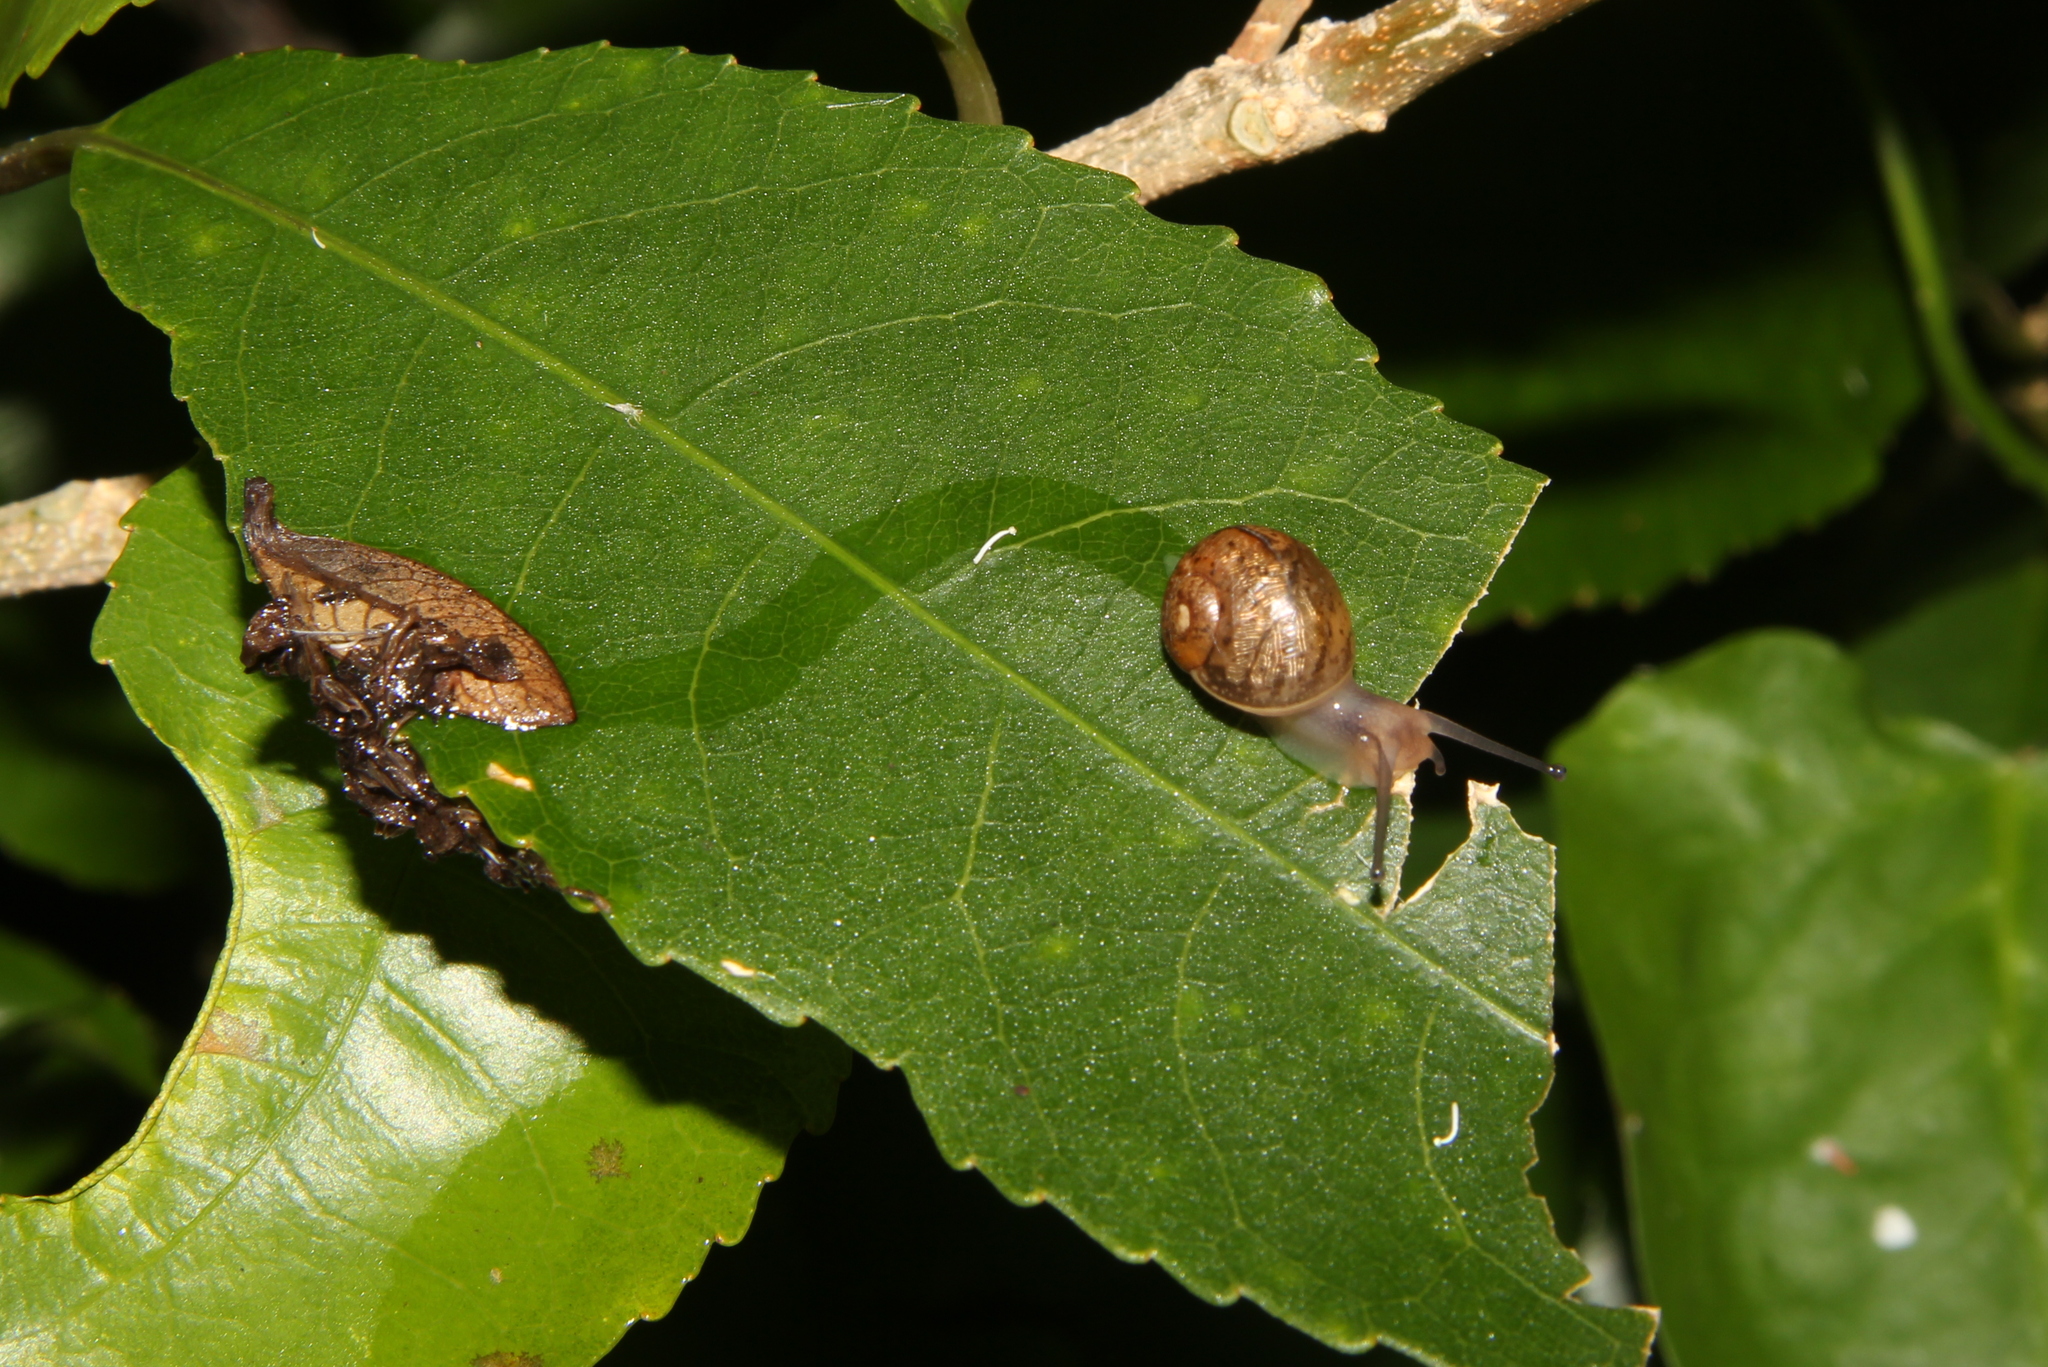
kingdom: Animalia
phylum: Mollusca
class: Gastropoda
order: Stylommatophora
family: Helicidae
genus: Cornu
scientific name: Cornu aspersum
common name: Brown garden snail
